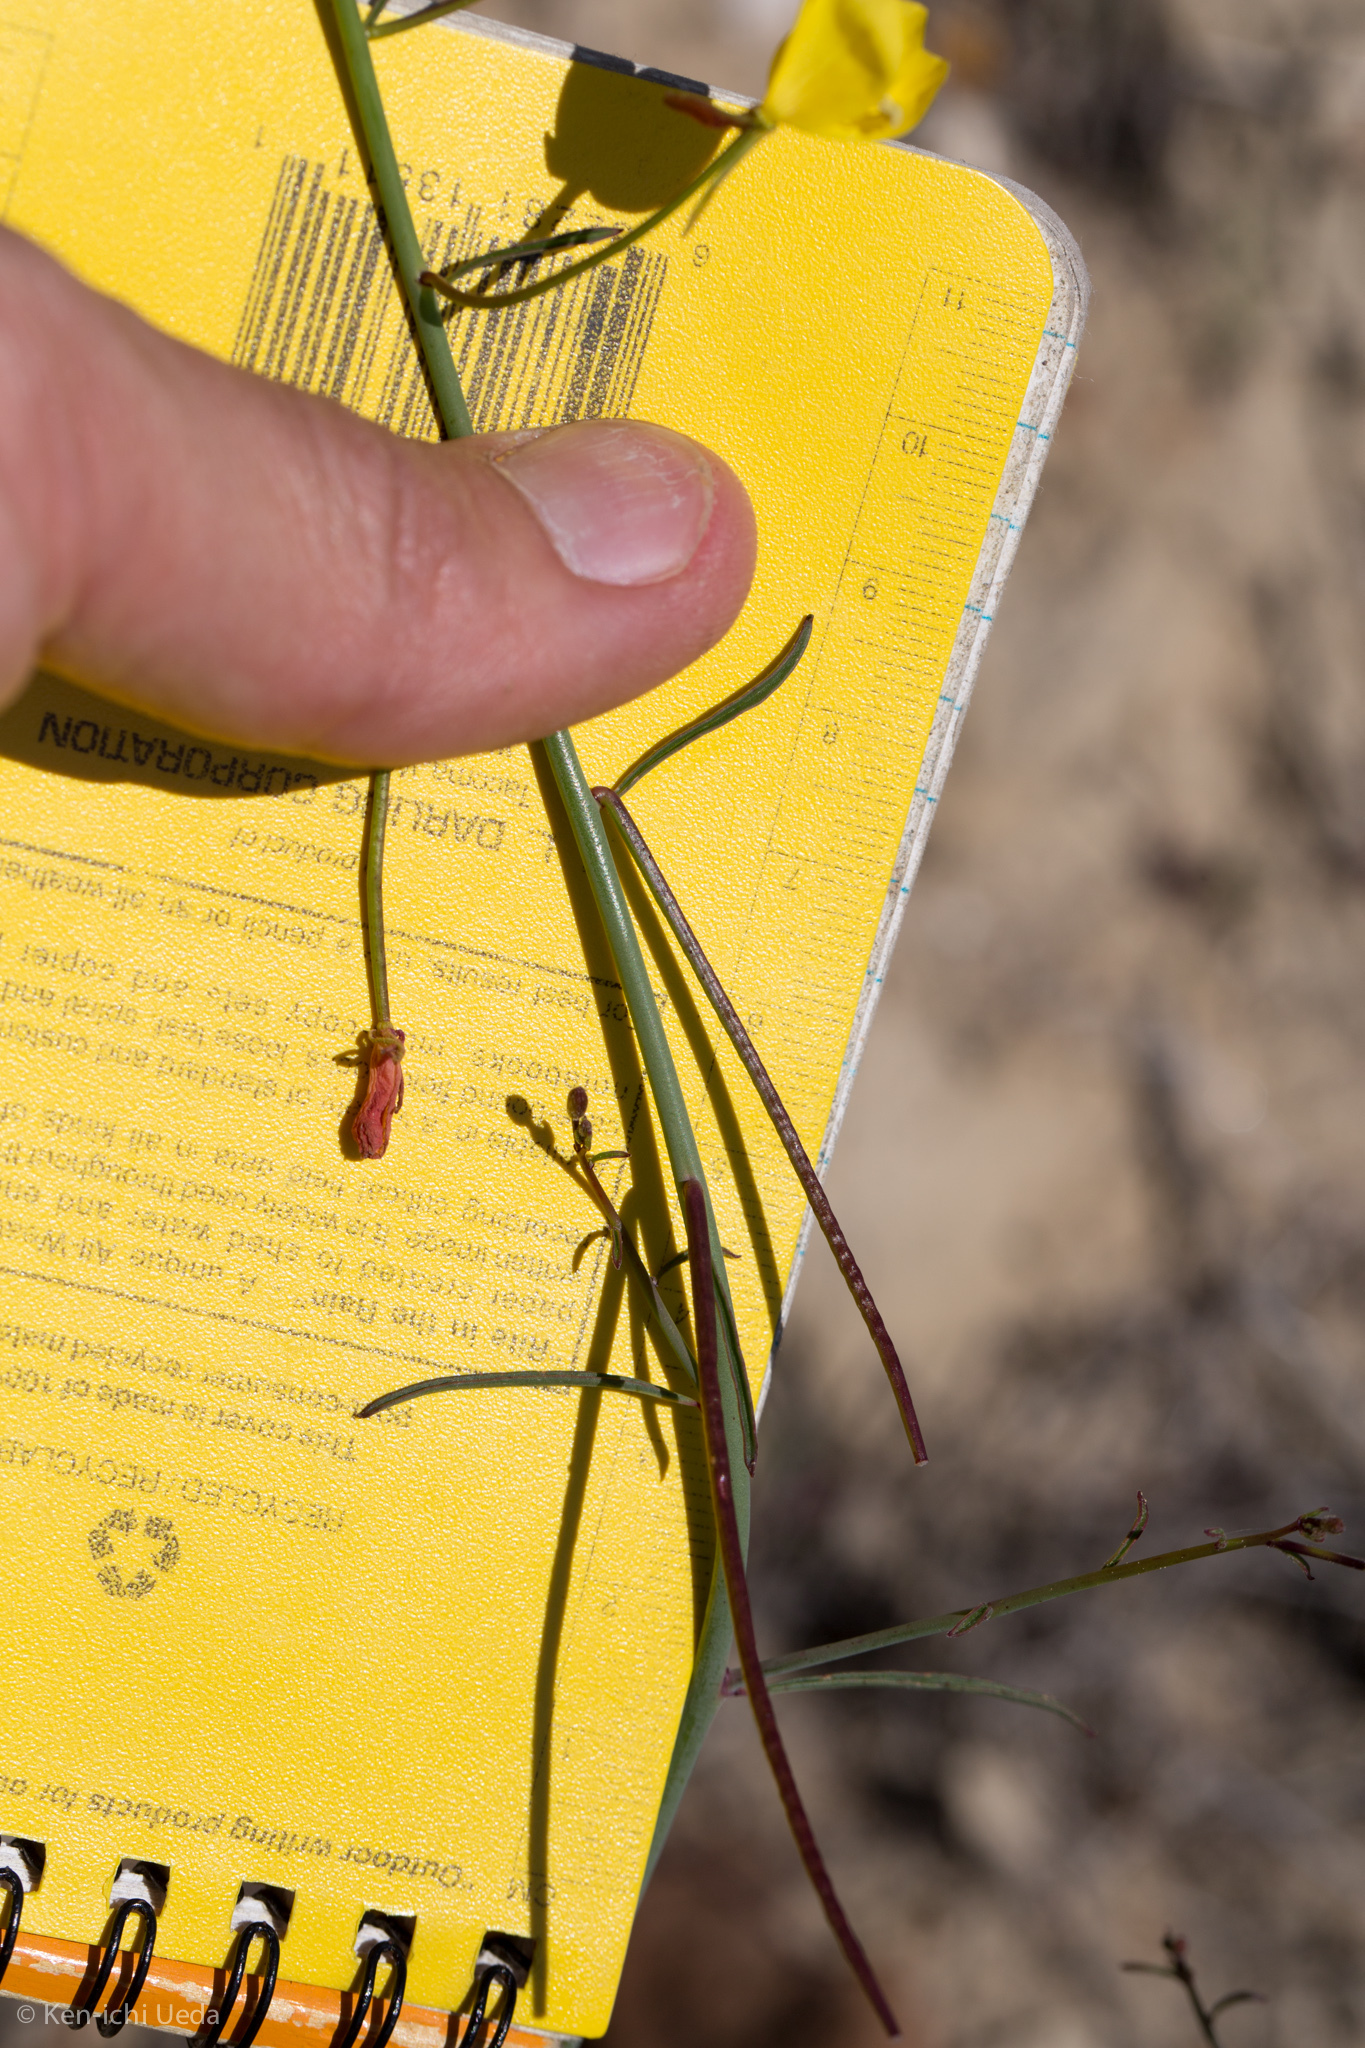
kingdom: Plantae
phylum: Tracheophyta
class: Magnoliopsida
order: Myrtales
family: Onagraceae
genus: Eulobus
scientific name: Eulobus californicus
